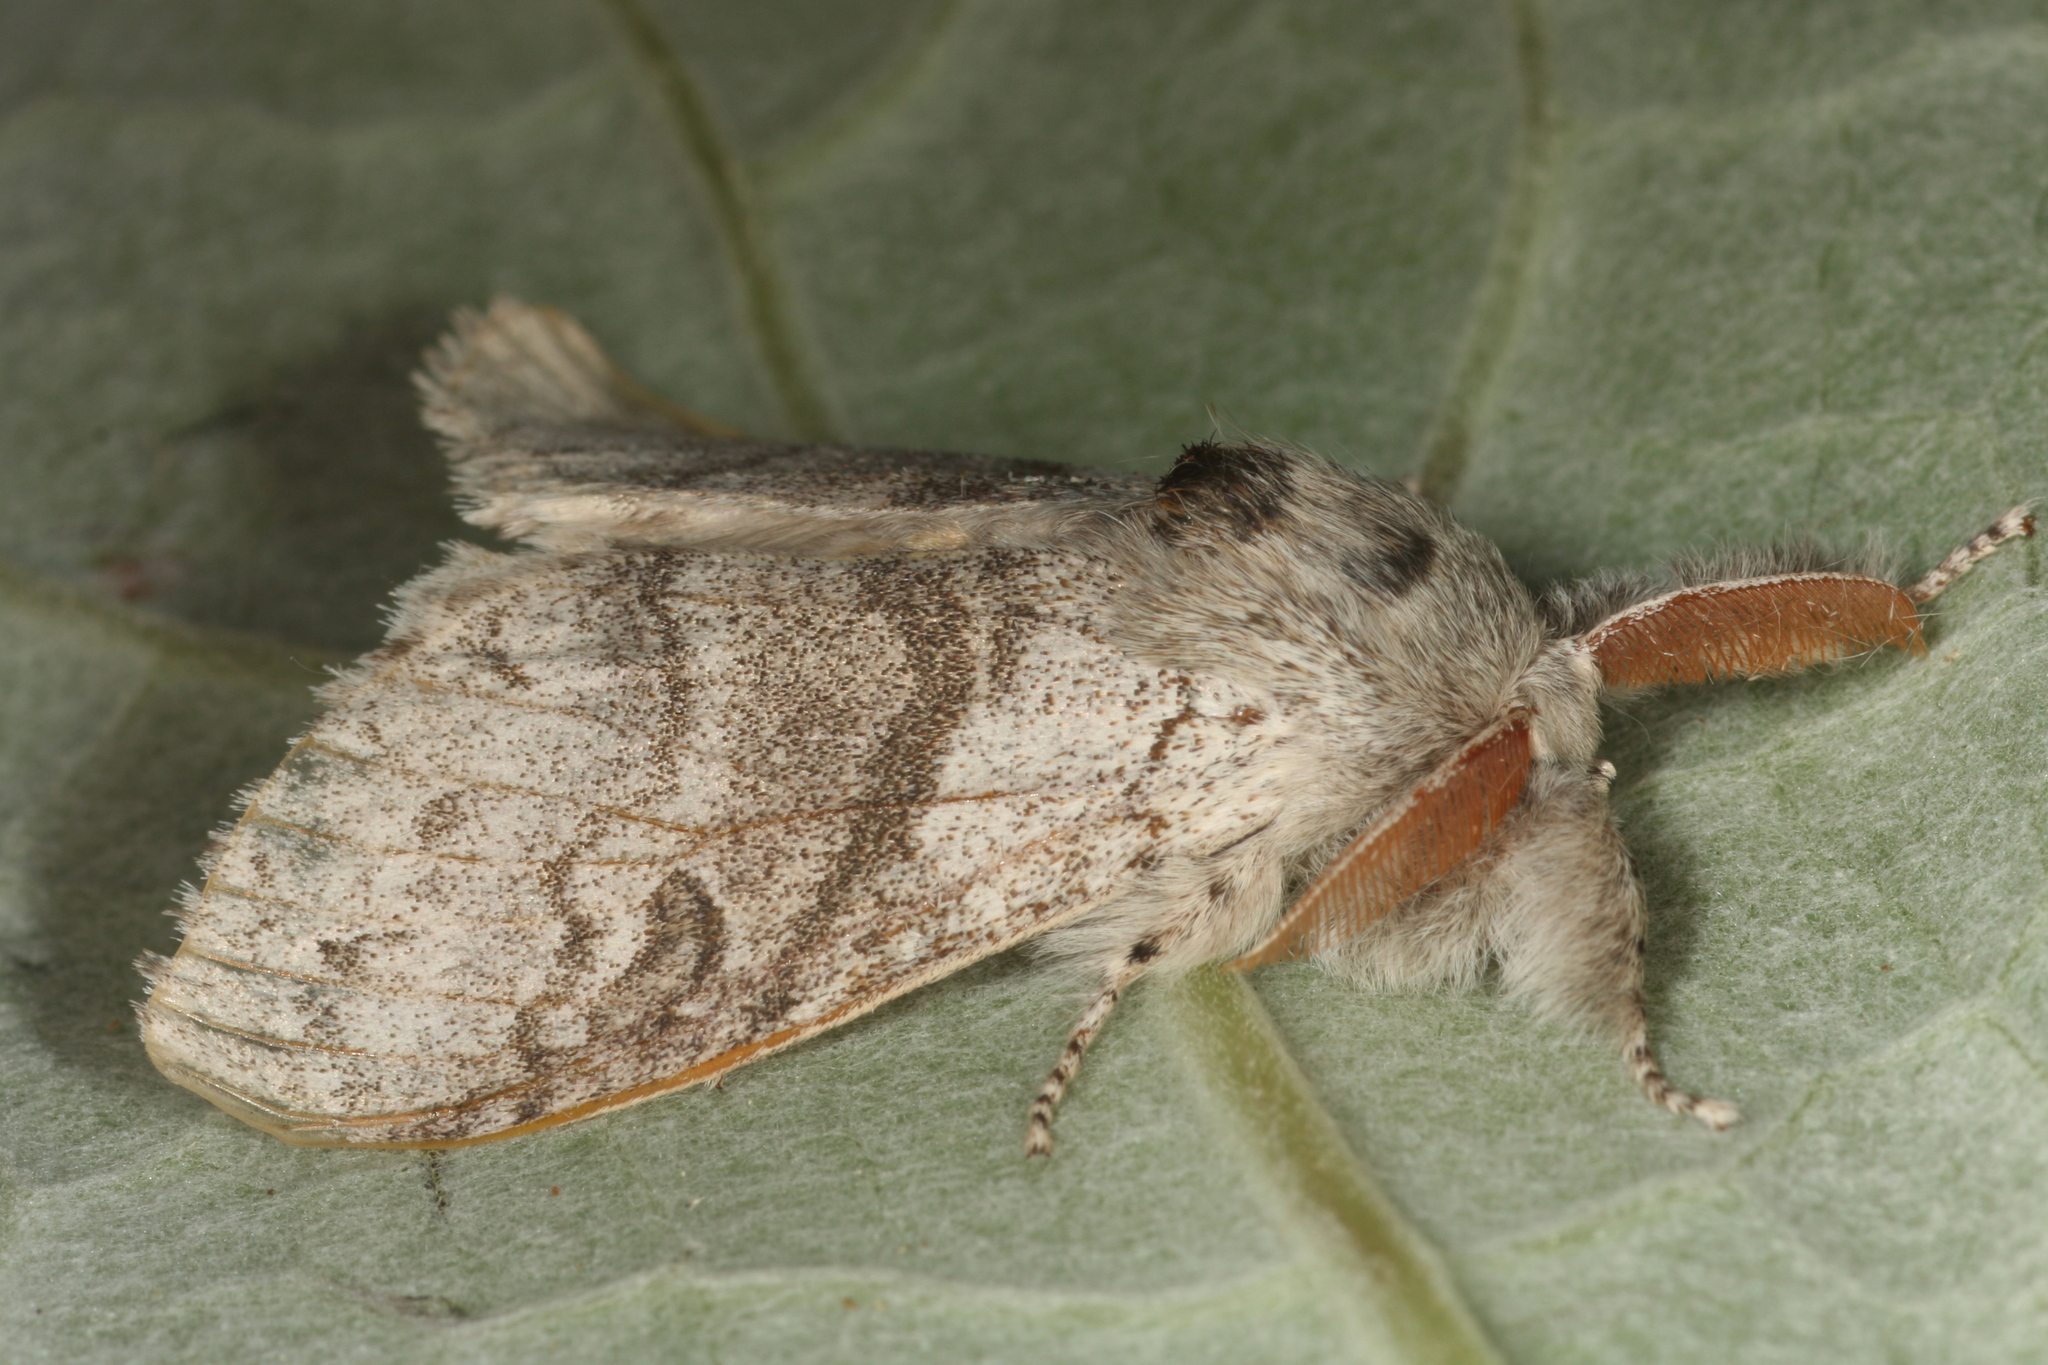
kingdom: Animalia
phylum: Arthropoda
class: Insecta
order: Lepidoptera
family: Erebidae
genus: Calliteara
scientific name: Calliteara pudibunda
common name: Pale tussock
